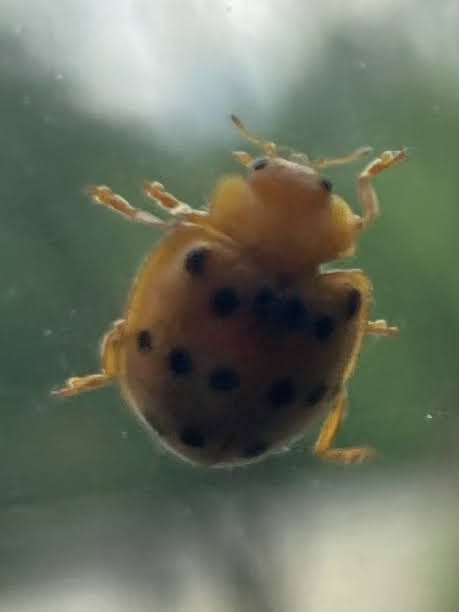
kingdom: Animalia
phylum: Arthropoda
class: Insecta
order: Coleoptera
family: Coccinellidae
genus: Epilachna
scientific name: Epilachna varivestis
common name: Ladybird beetle
